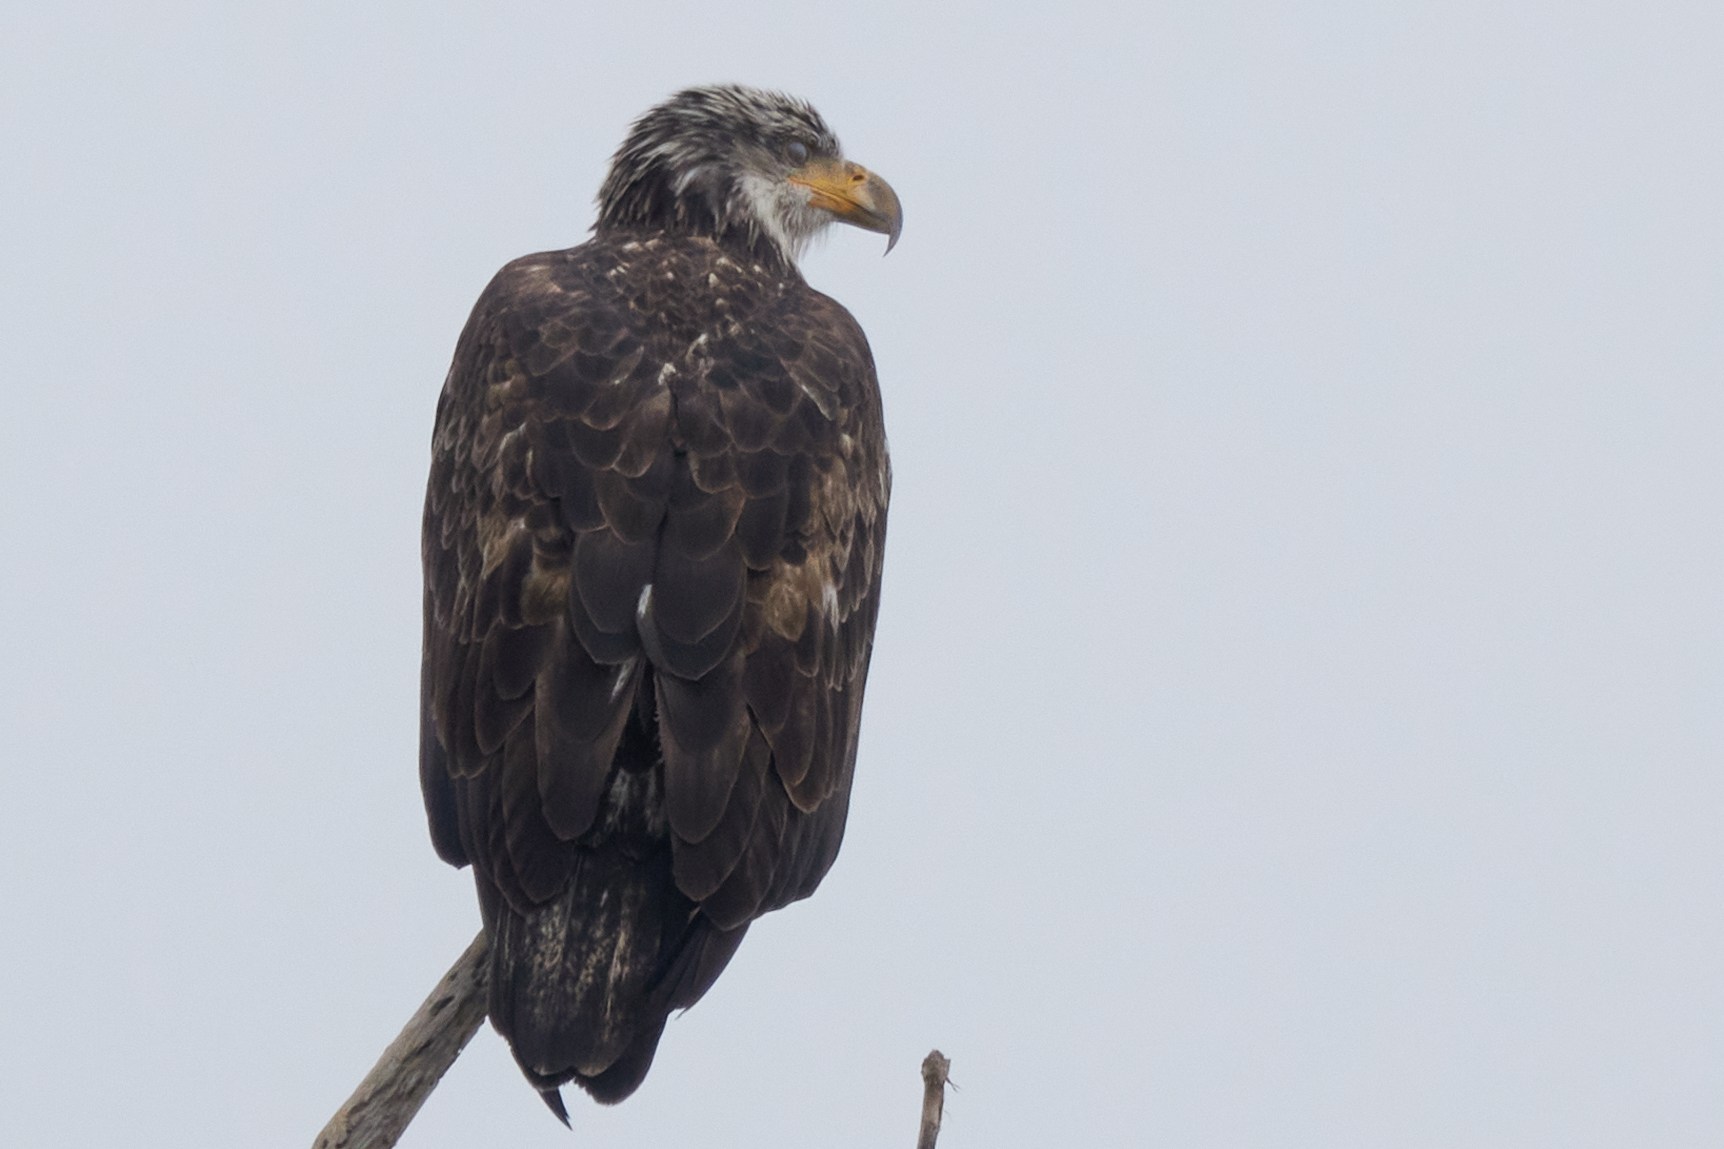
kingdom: Animalia
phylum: Chordata
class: Aves
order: Accipitriformes
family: Accipitridae
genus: Haliaeetus
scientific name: Haliaeetus leucocephalus
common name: Bald eagle
